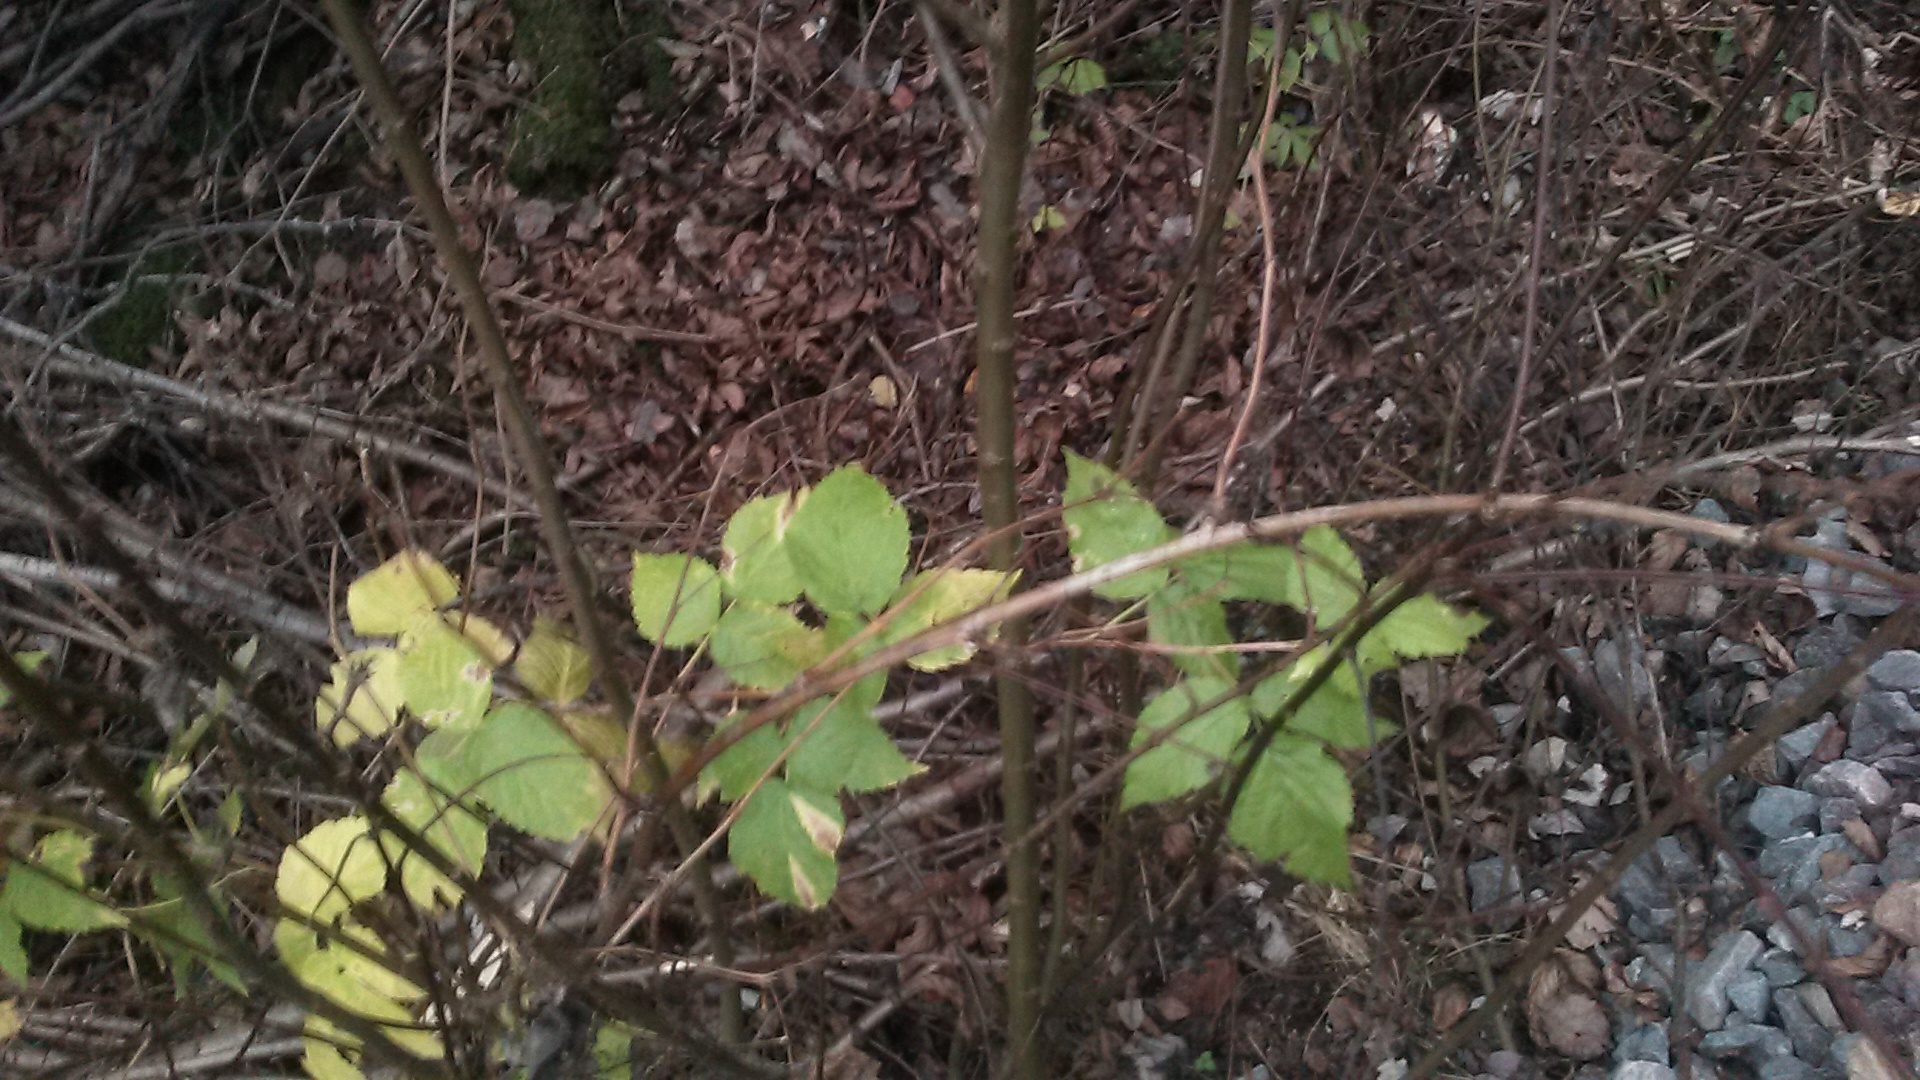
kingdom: Plantae
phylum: Tracheophyta
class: Magnoliopsida
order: Rosales
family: Rosaceae
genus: Rubus
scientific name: Rubus idaeus
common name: Raspberry
